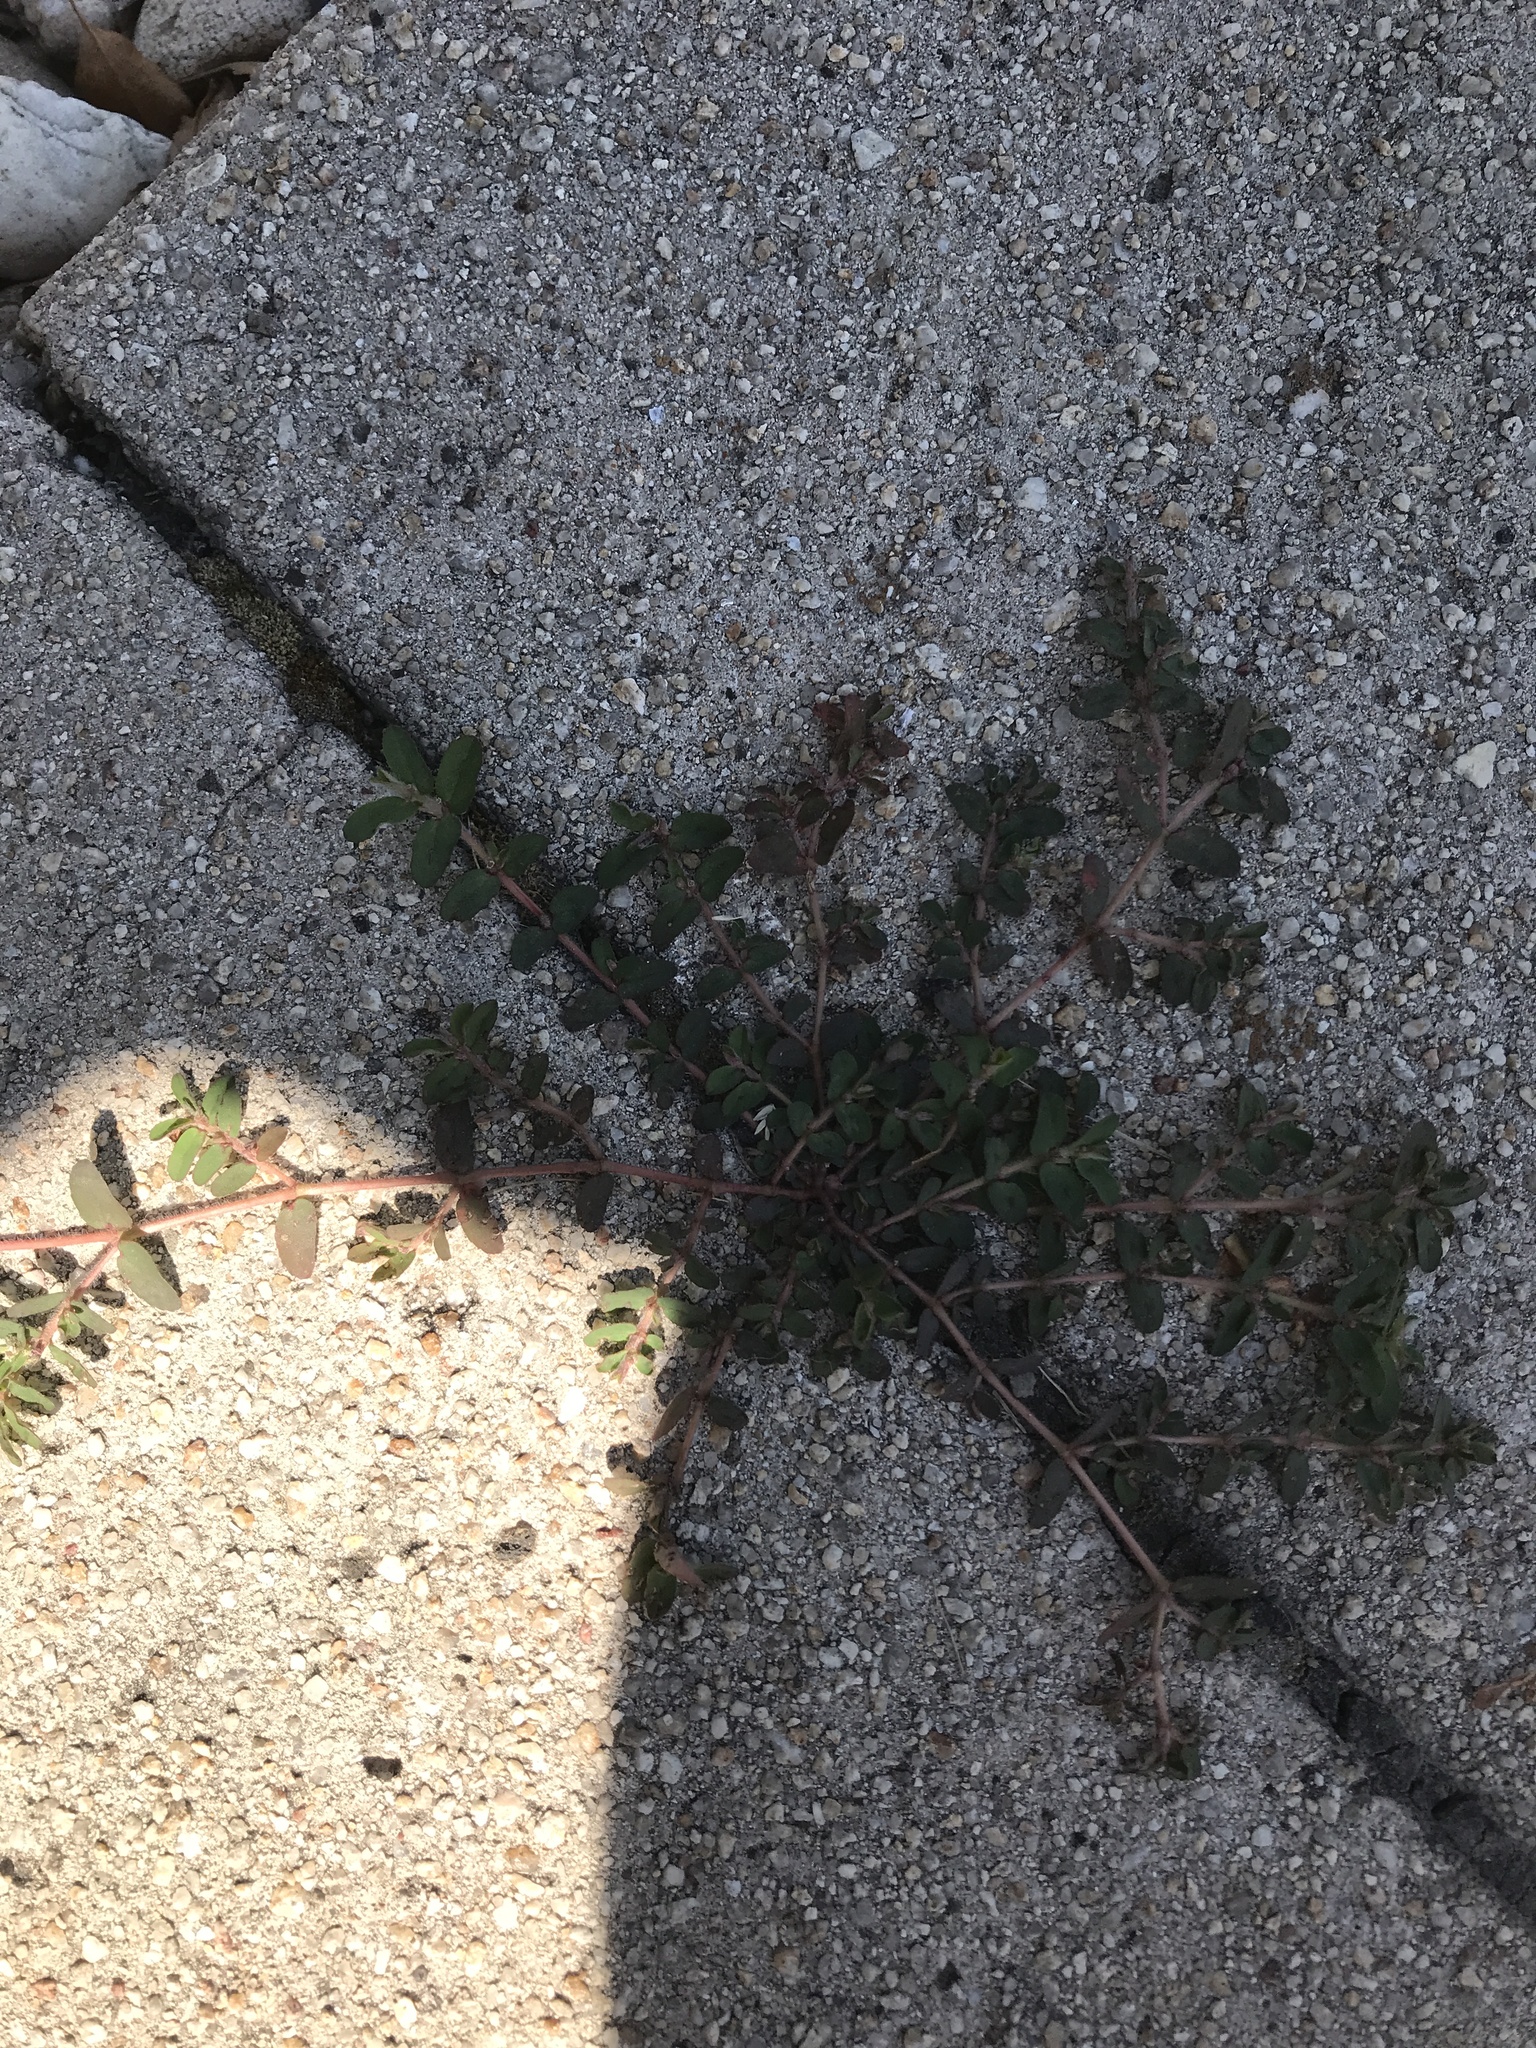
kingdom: Plantae
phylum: Tracheophyta
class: Magnoliopsida
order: Malpighiales
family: Euphorbiaceae
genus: Euphorbia
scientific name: Euphorbia maculata
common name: Spotted spurge
